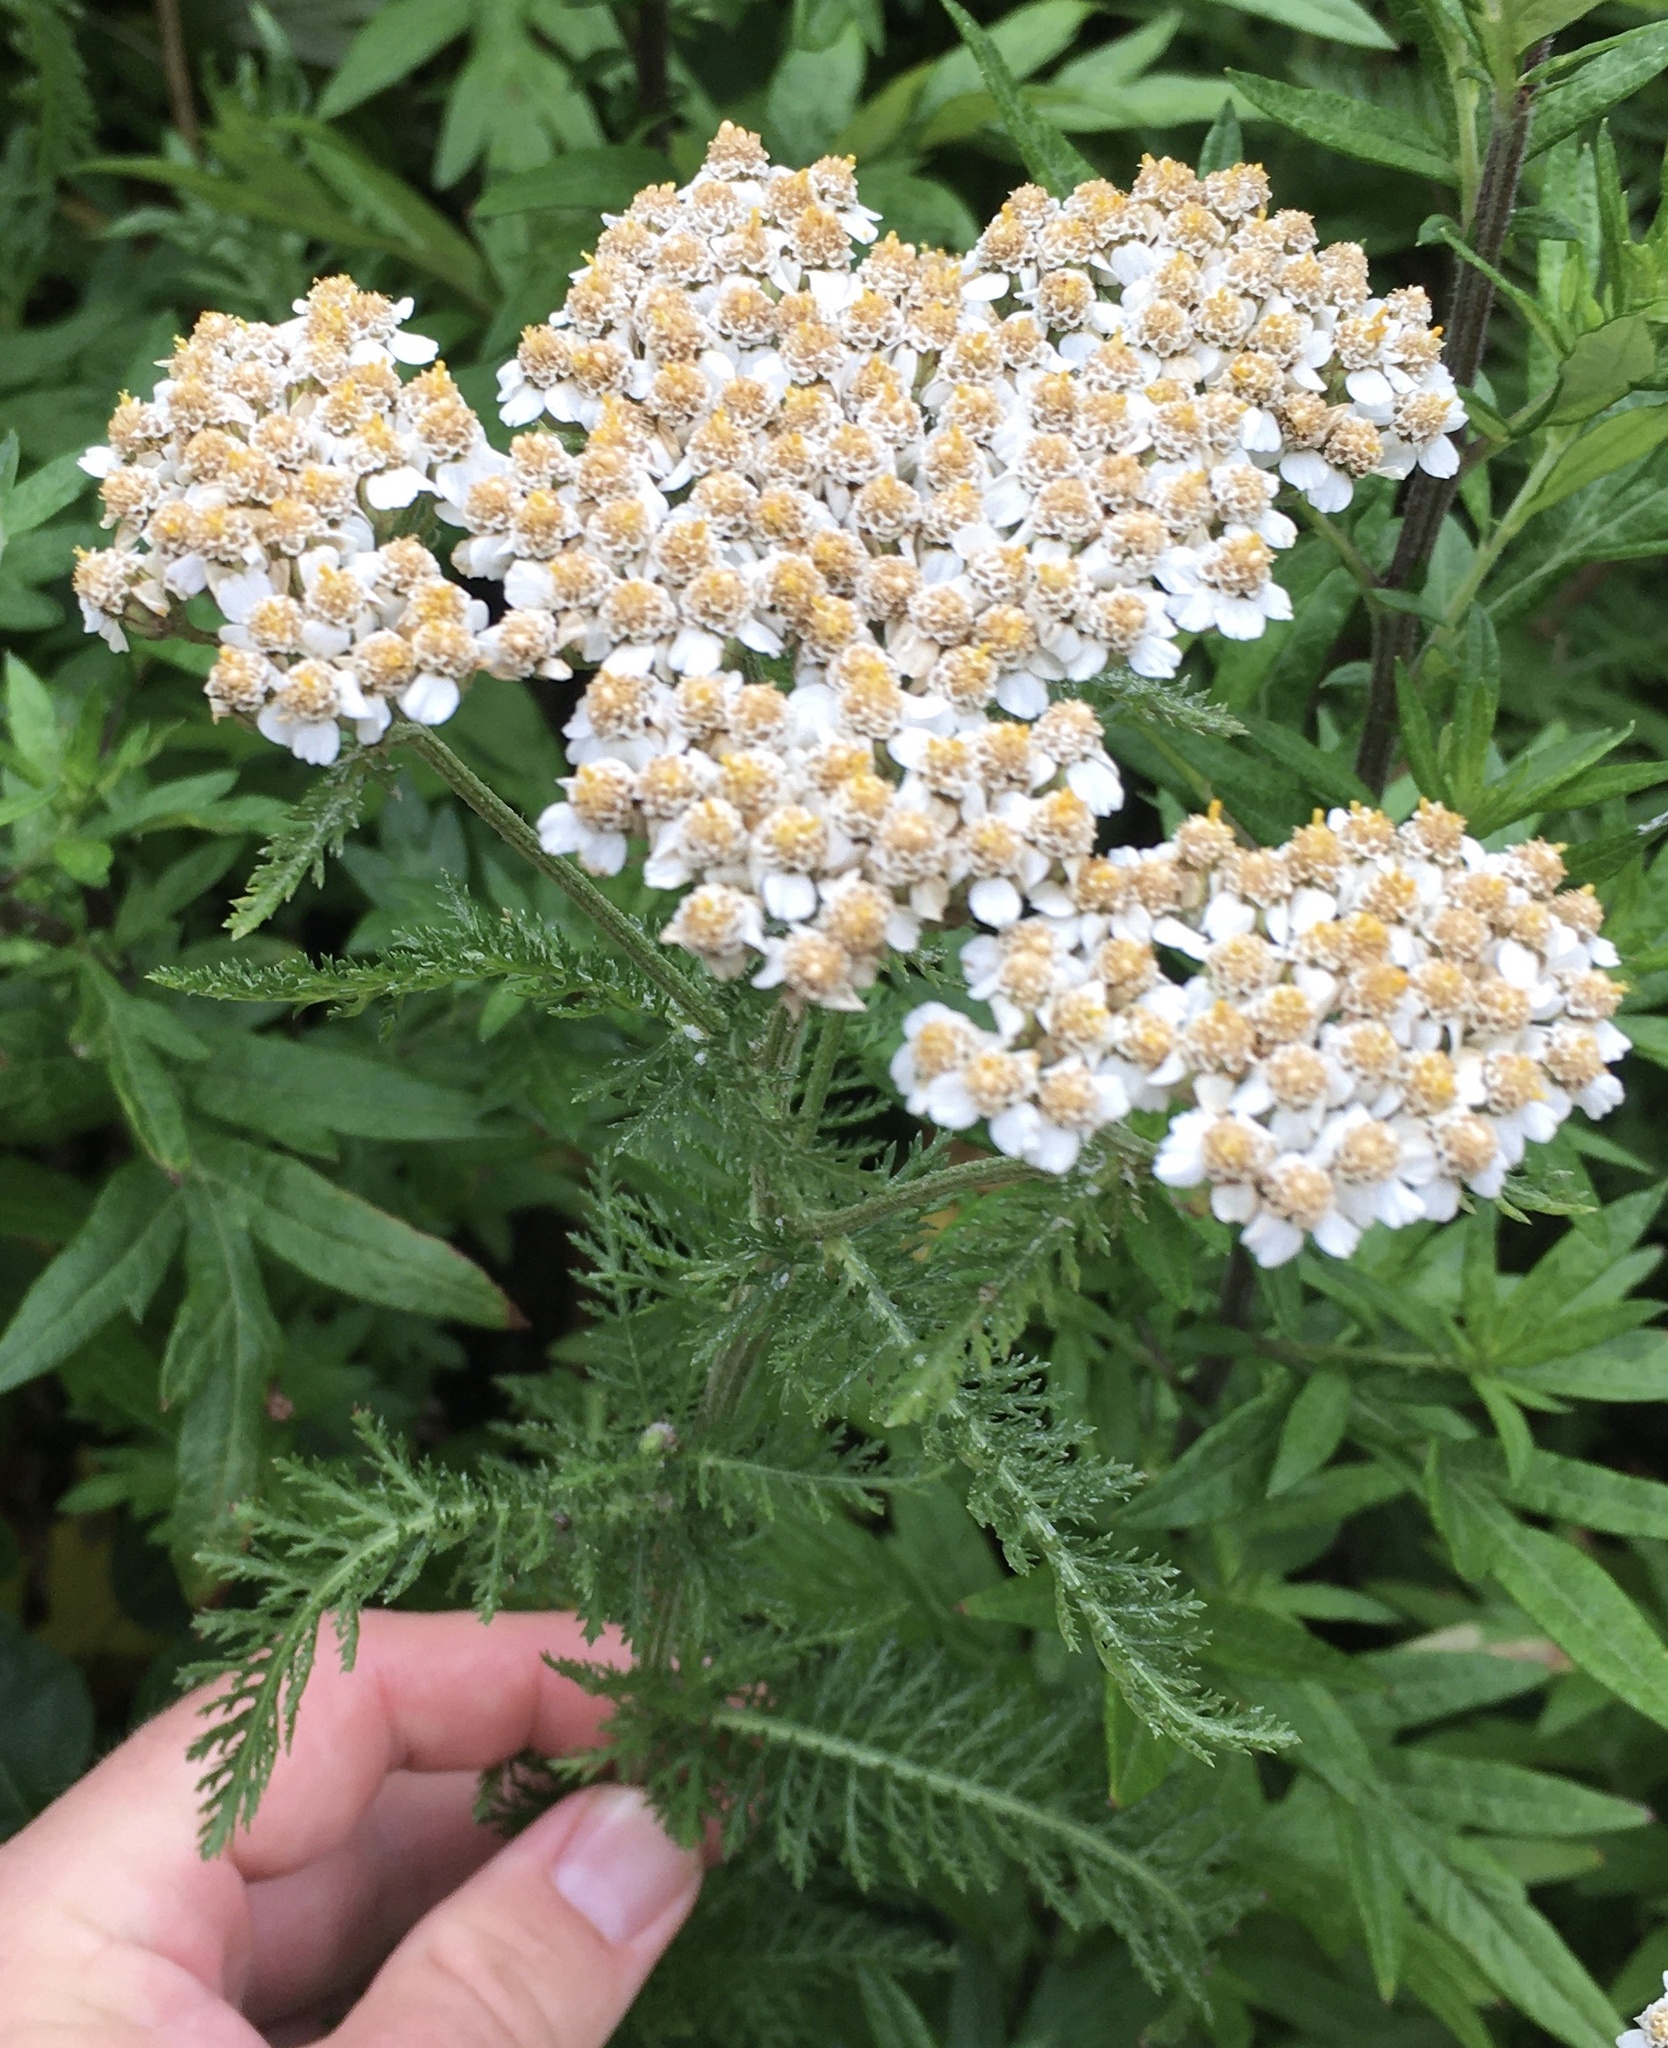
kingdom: Plantae
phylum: Tracheophyta
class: Magnoliopsida
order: Asterales
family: Asteraceae
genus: Achillea
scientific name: Achillea millefolium
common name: Yarrow
